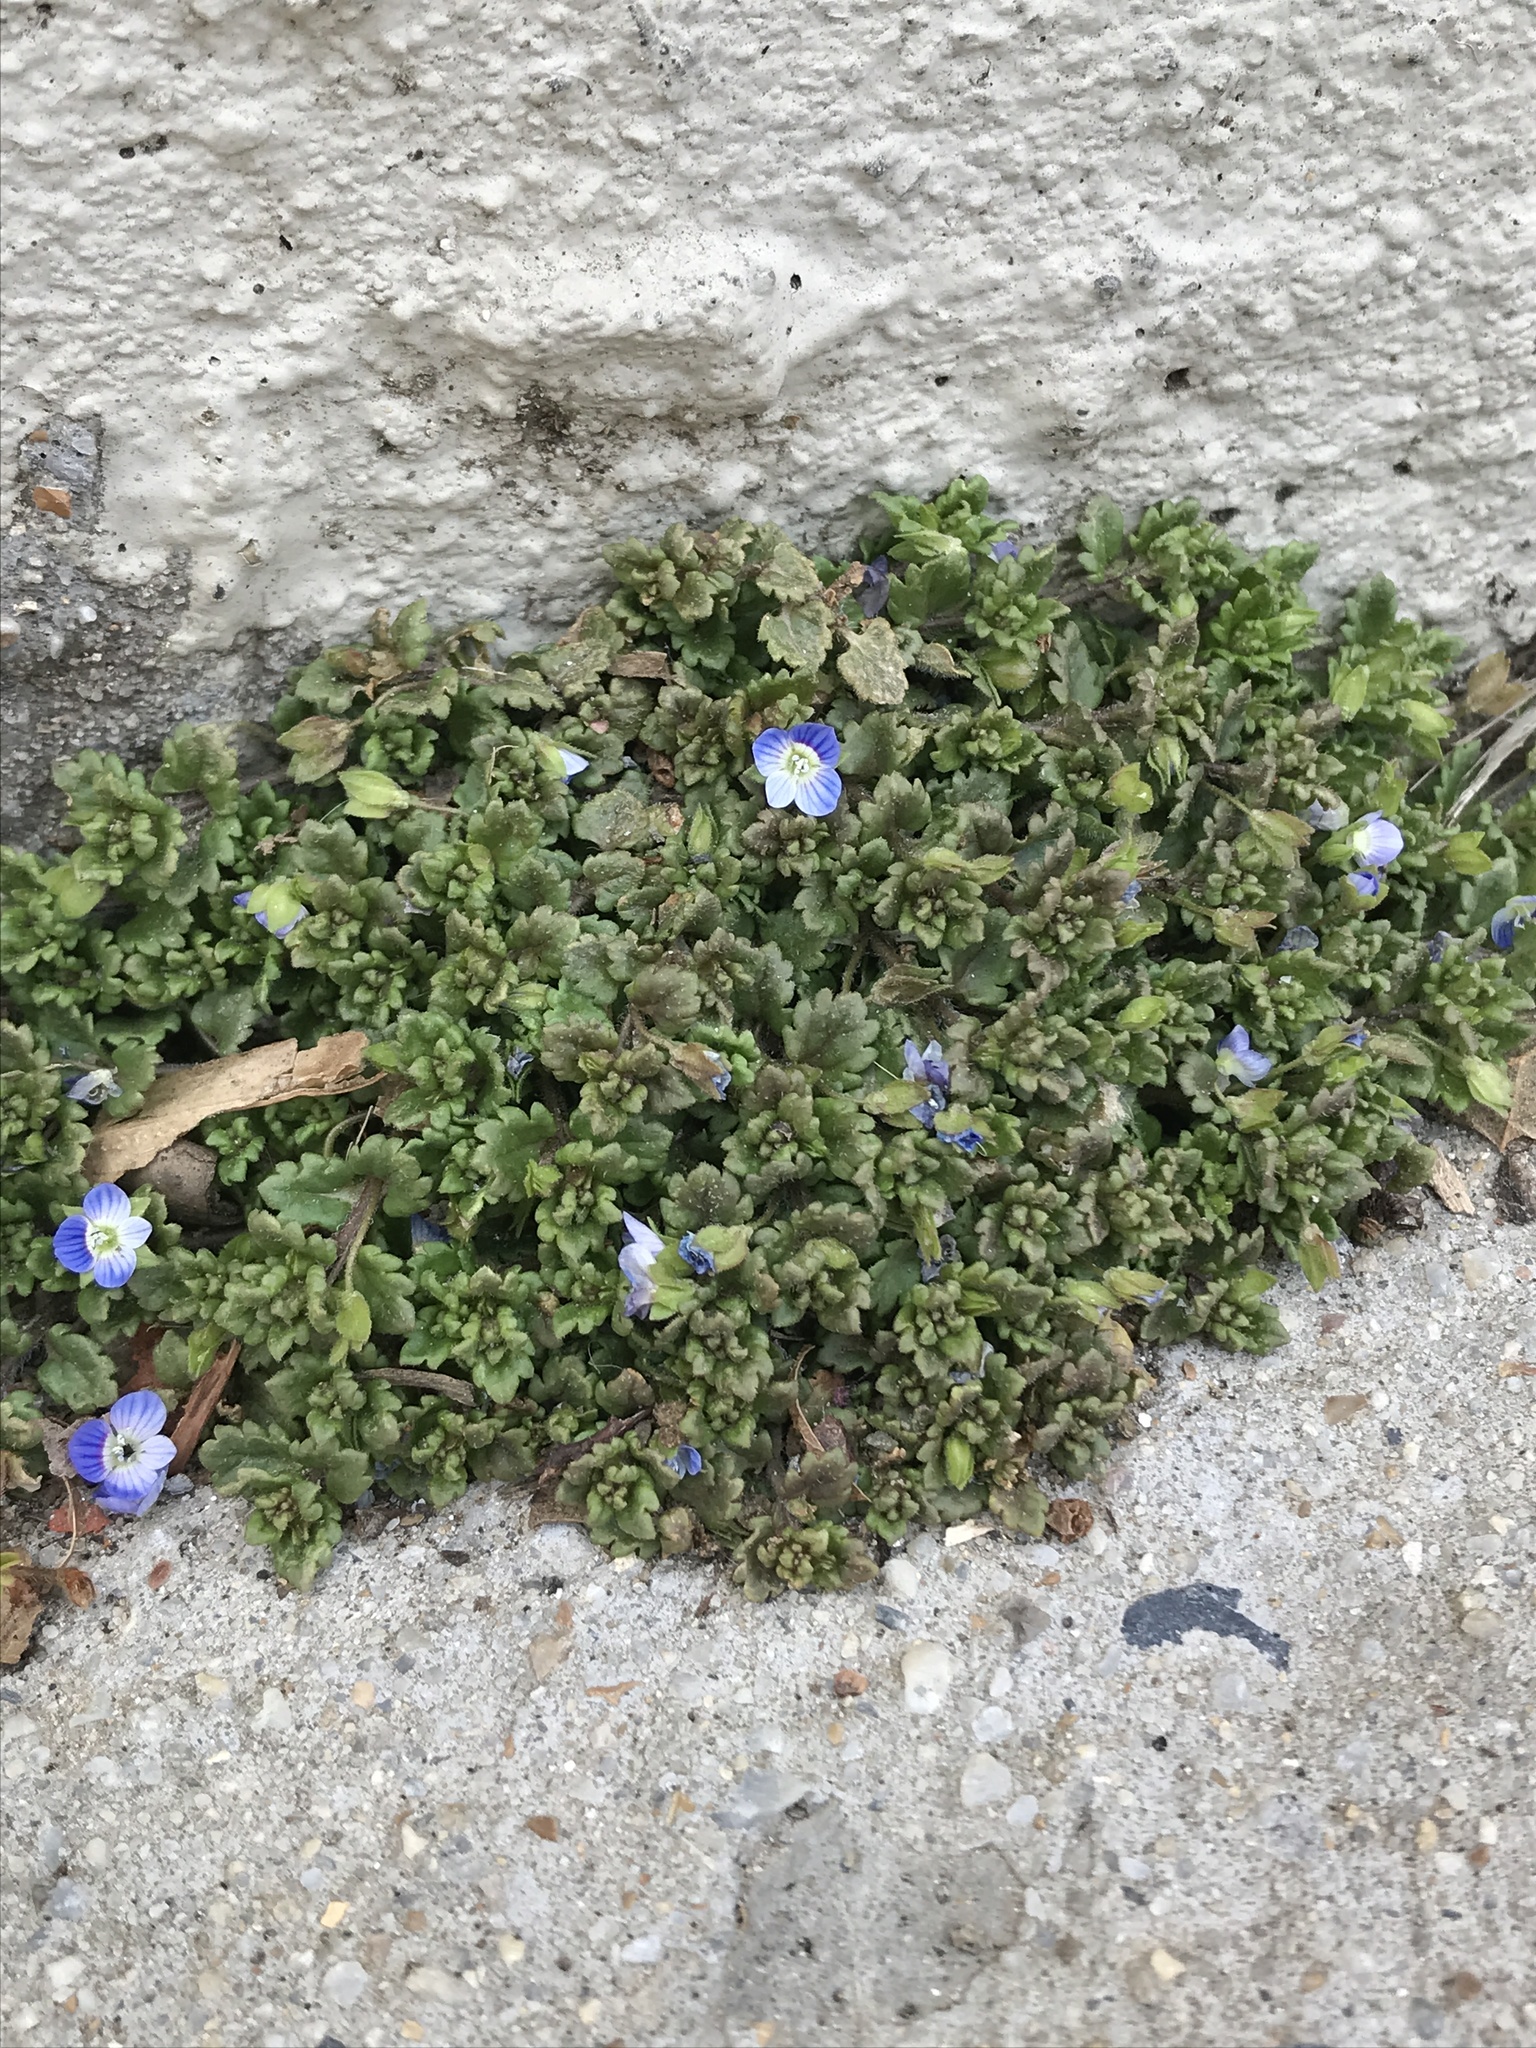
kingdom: Plantae
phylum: Tracheophyta
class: Magnoliopsida
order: Lamiales
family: Plantaginaceae
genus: Veronica
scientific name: Veronica polita
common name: Grey field-speedwell
